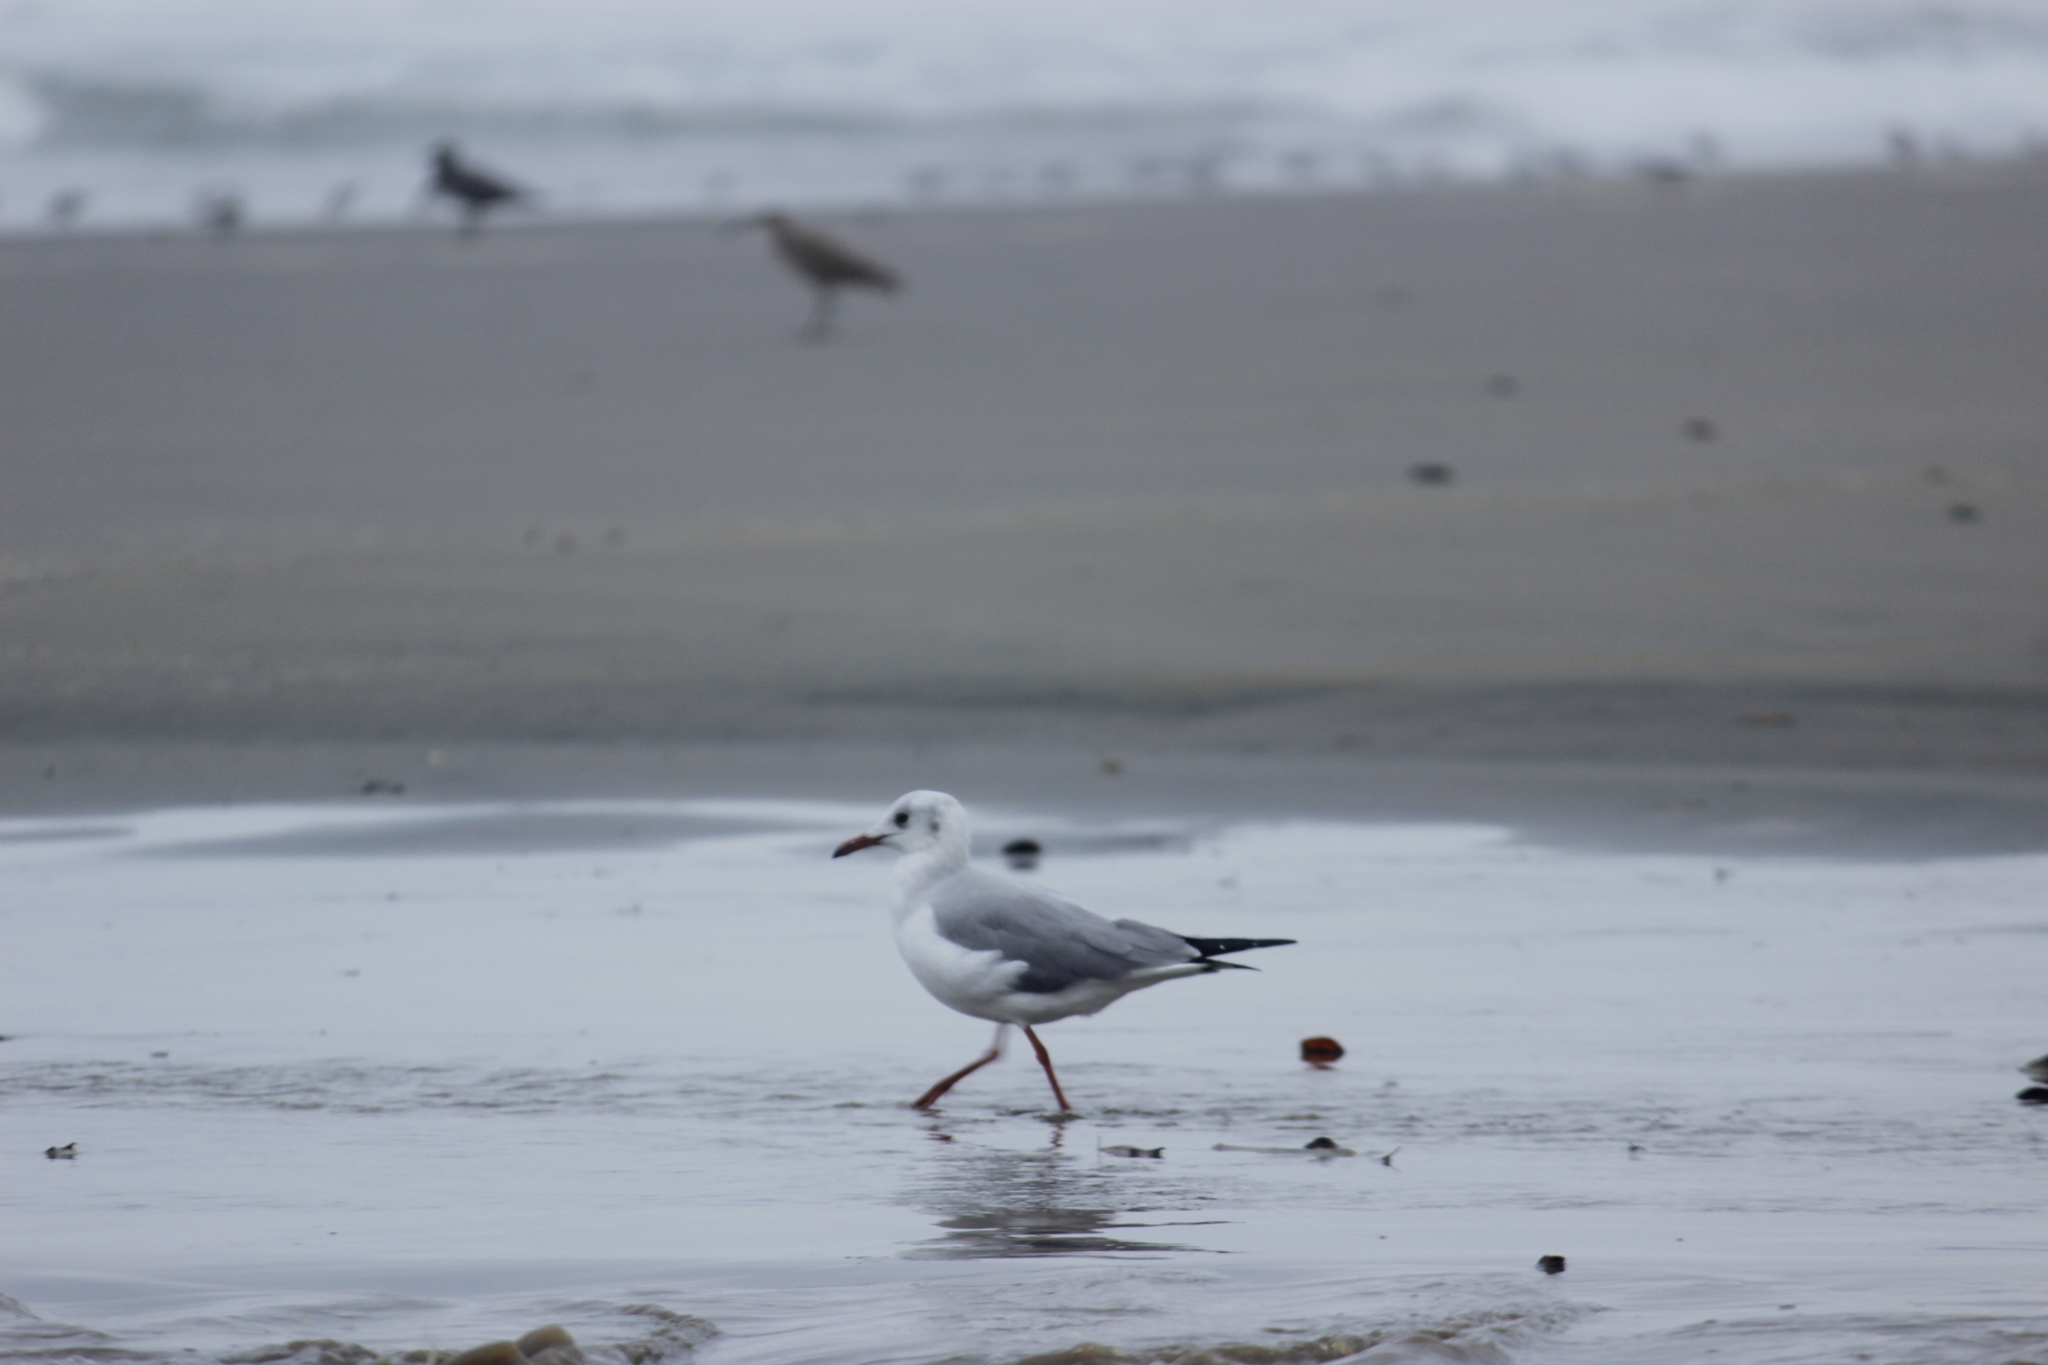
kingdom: Animalia
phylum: Chordata
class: Aves
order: Charadriiformes
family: Laridae
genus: Chroicocephalus
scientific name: Chroicocephalus cirrocephalus
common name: Grey-headed gull
